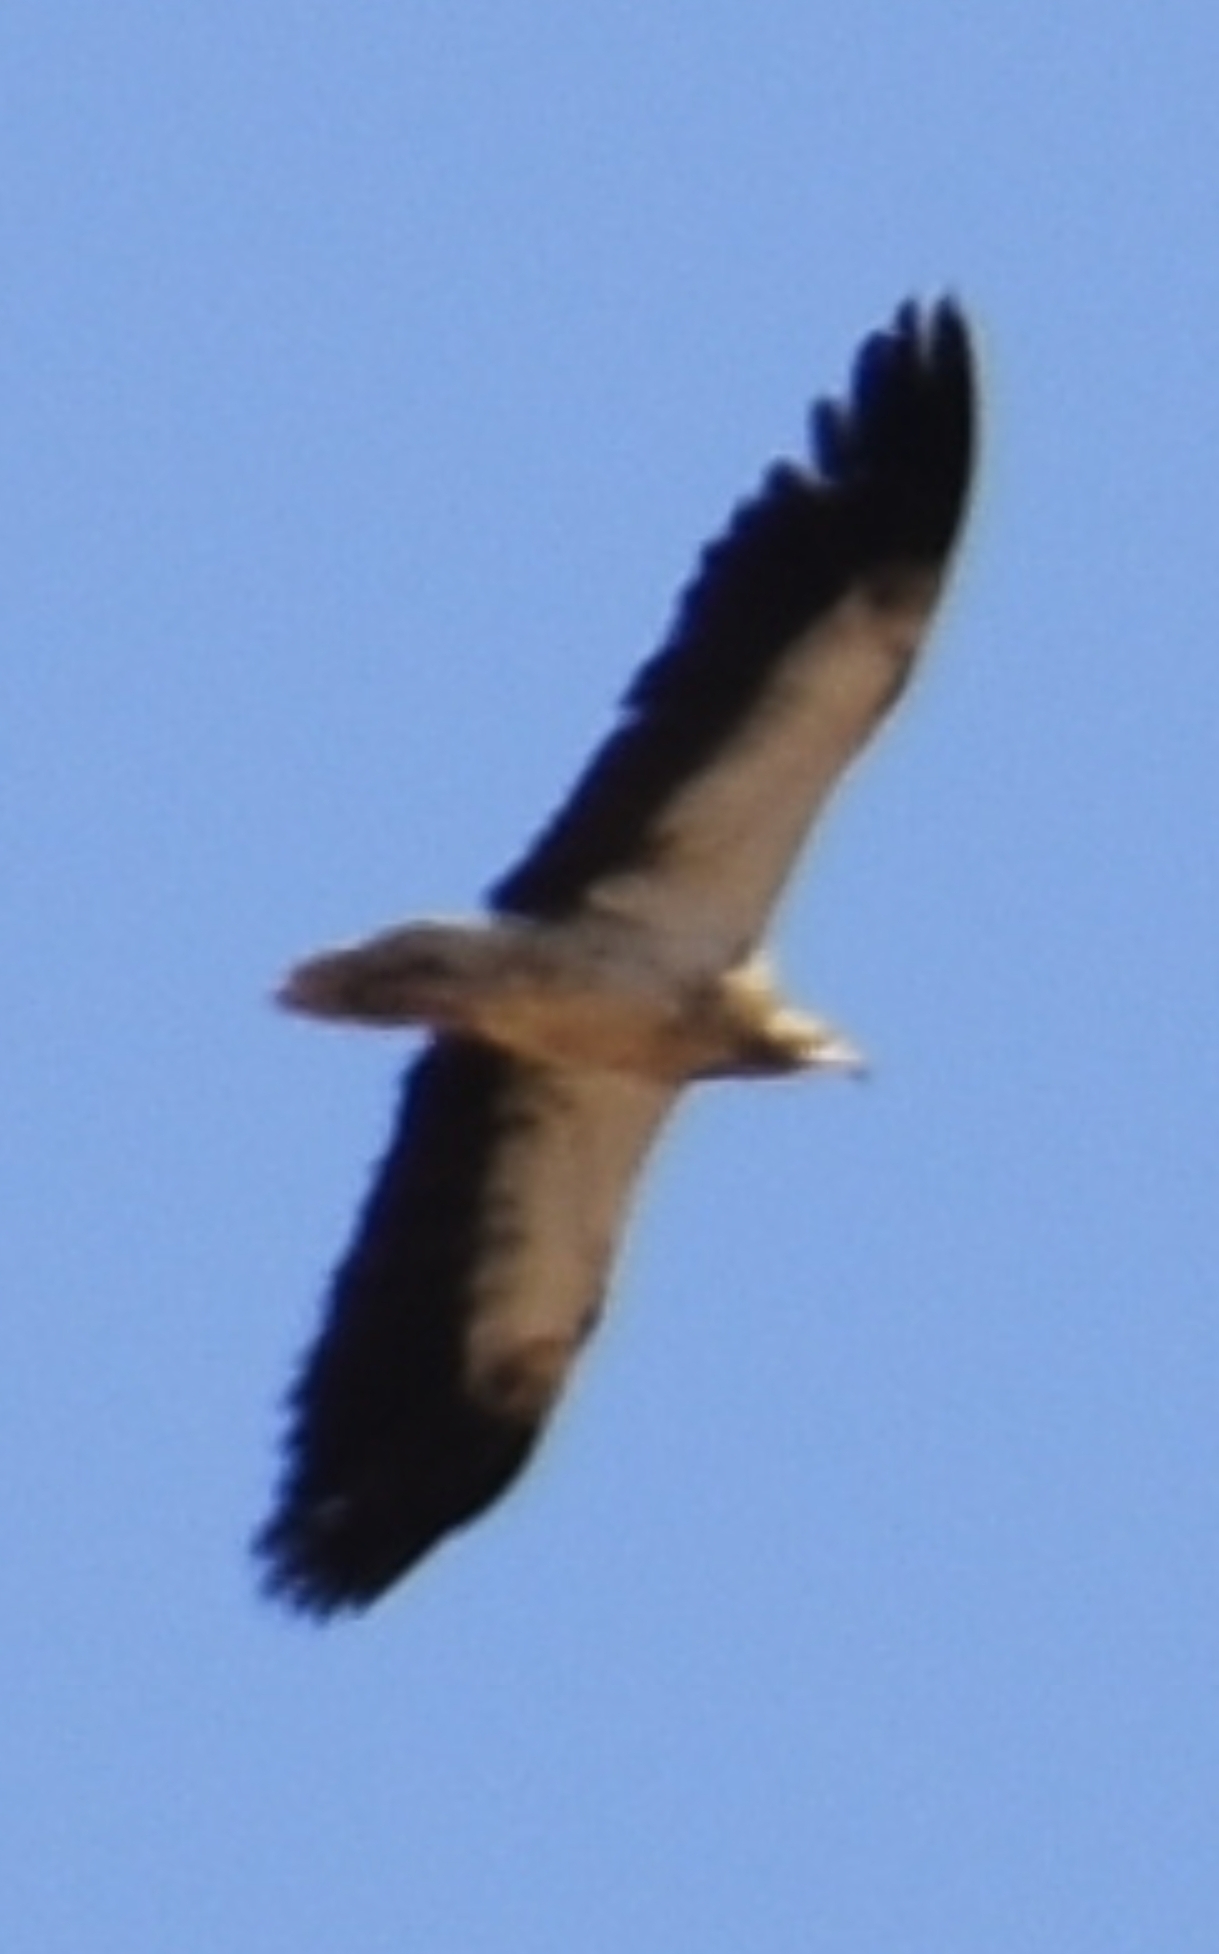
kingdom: Animalia
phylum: Chordata
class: Aves
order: Accipitriformes
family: Accipitridae
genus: Neophron
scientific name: Neophron percnopterus
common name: Egyptian vulture
